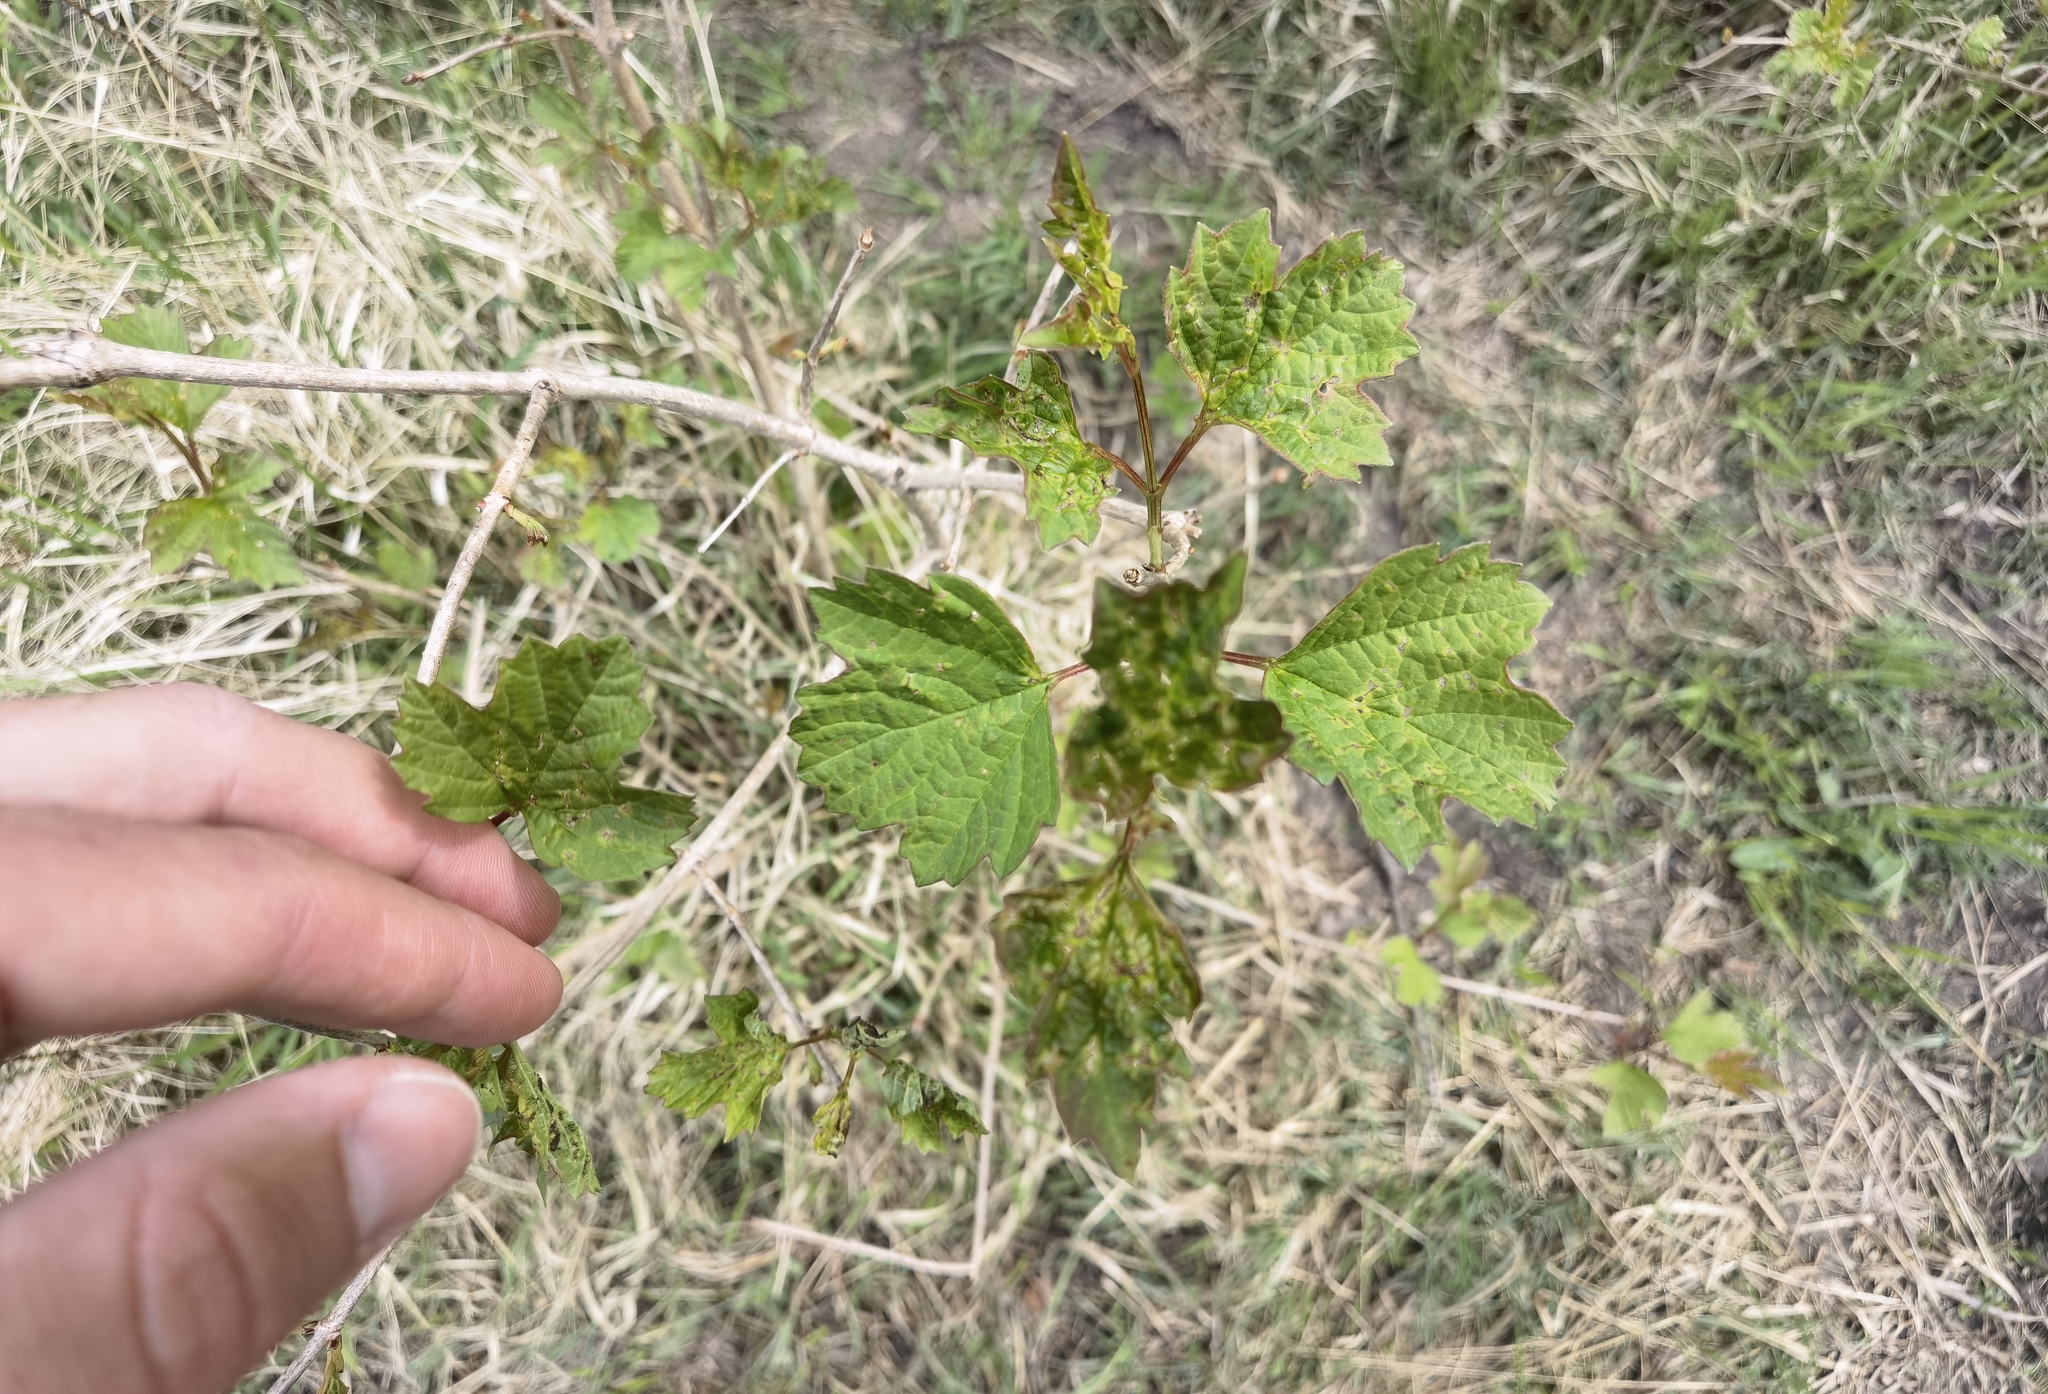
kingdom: Plantae
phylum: Tracheophyta
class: Magnoliopsida
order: Dipsacales
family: Viburnaceae
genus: Viburnum
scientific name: Viburnum opulus
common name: Guelder-rose
